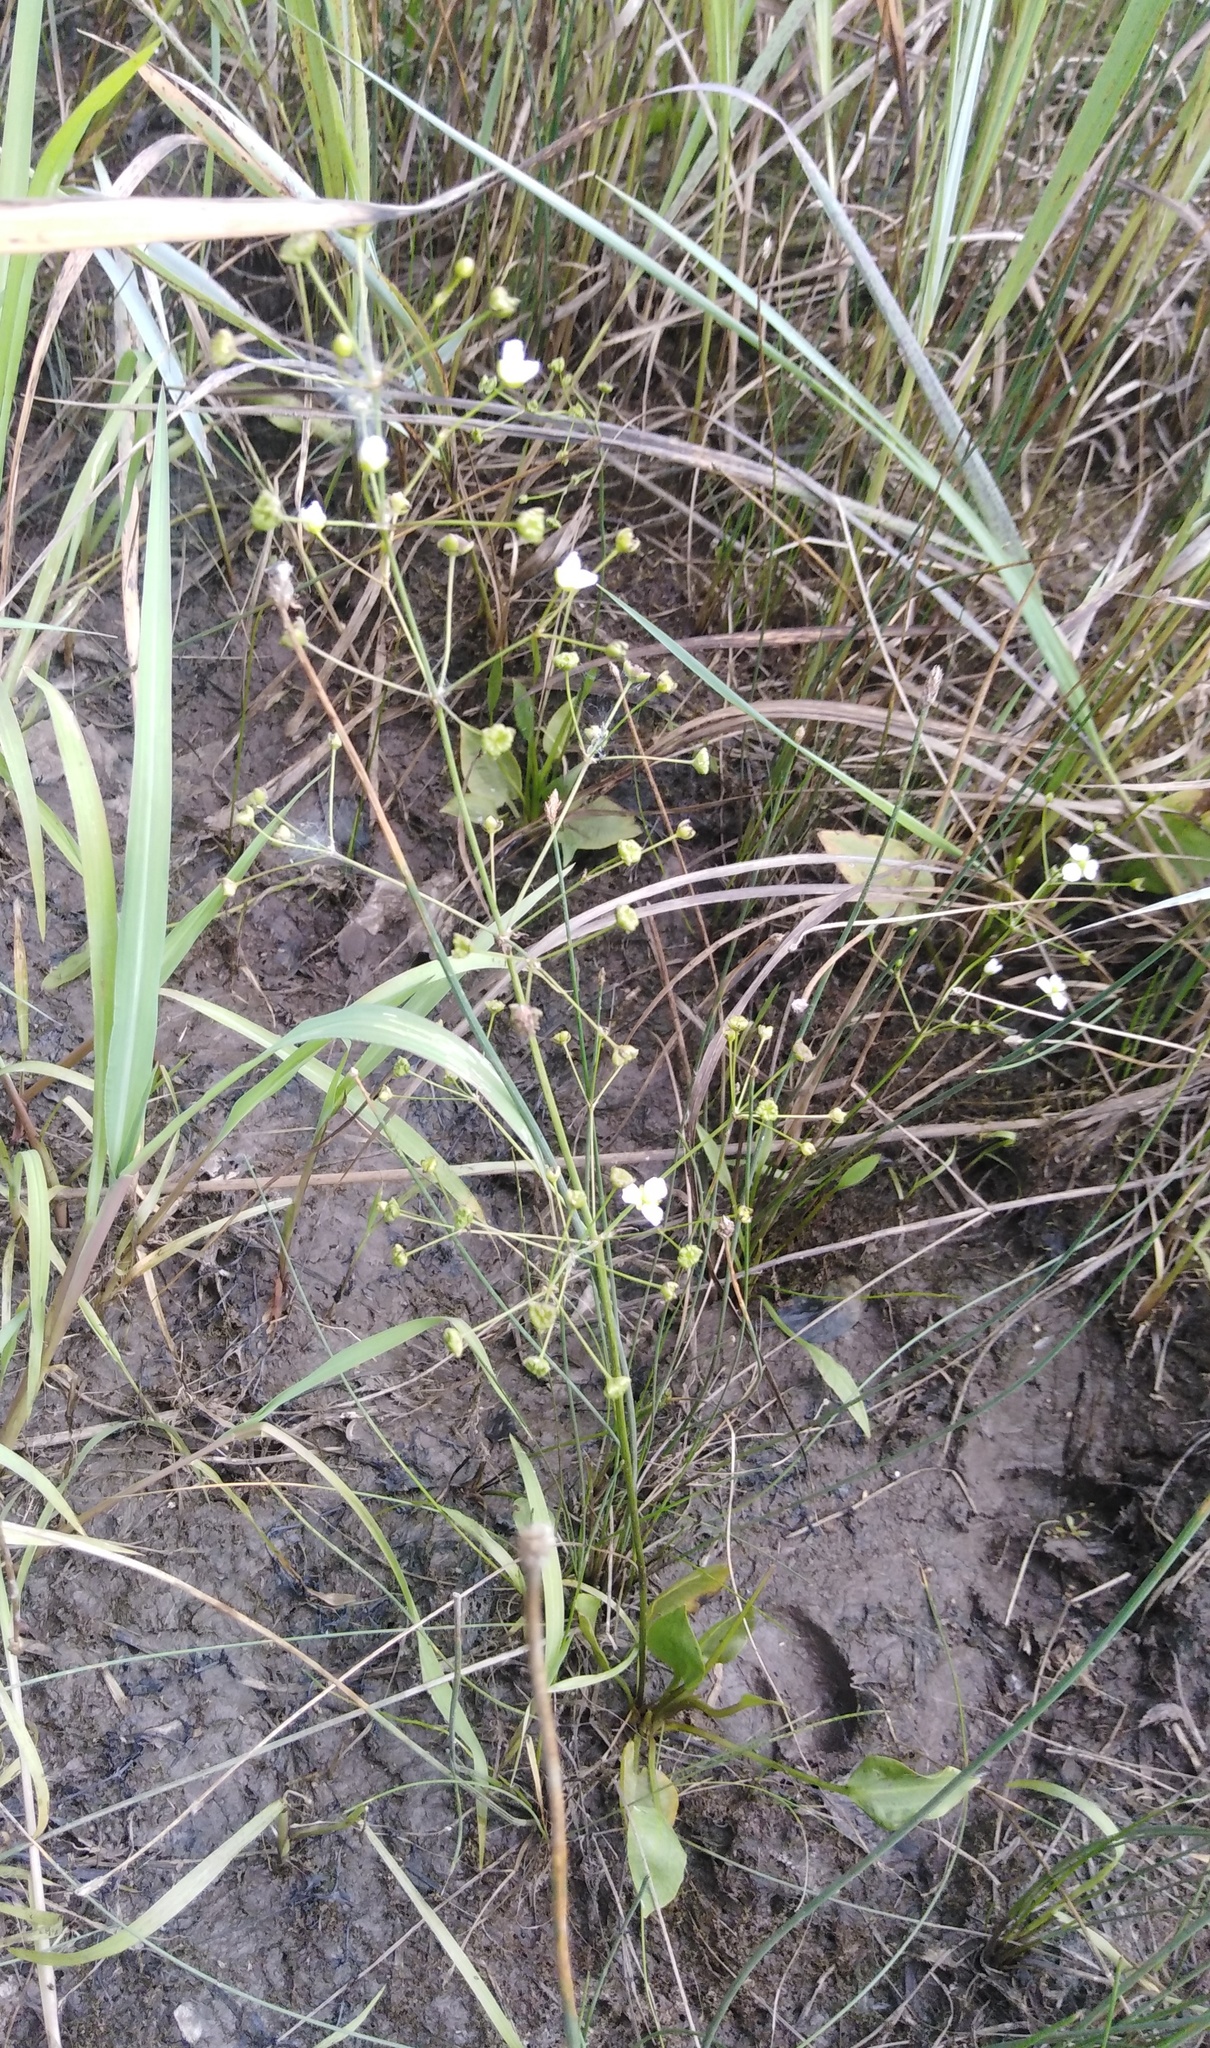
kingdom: Plantae
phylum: Tracheophyta
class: Liliopsida
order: Alismatales
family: Alismataceae
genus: Alisma
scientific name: Alisma plantago-aquatica
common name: Water-plantain
